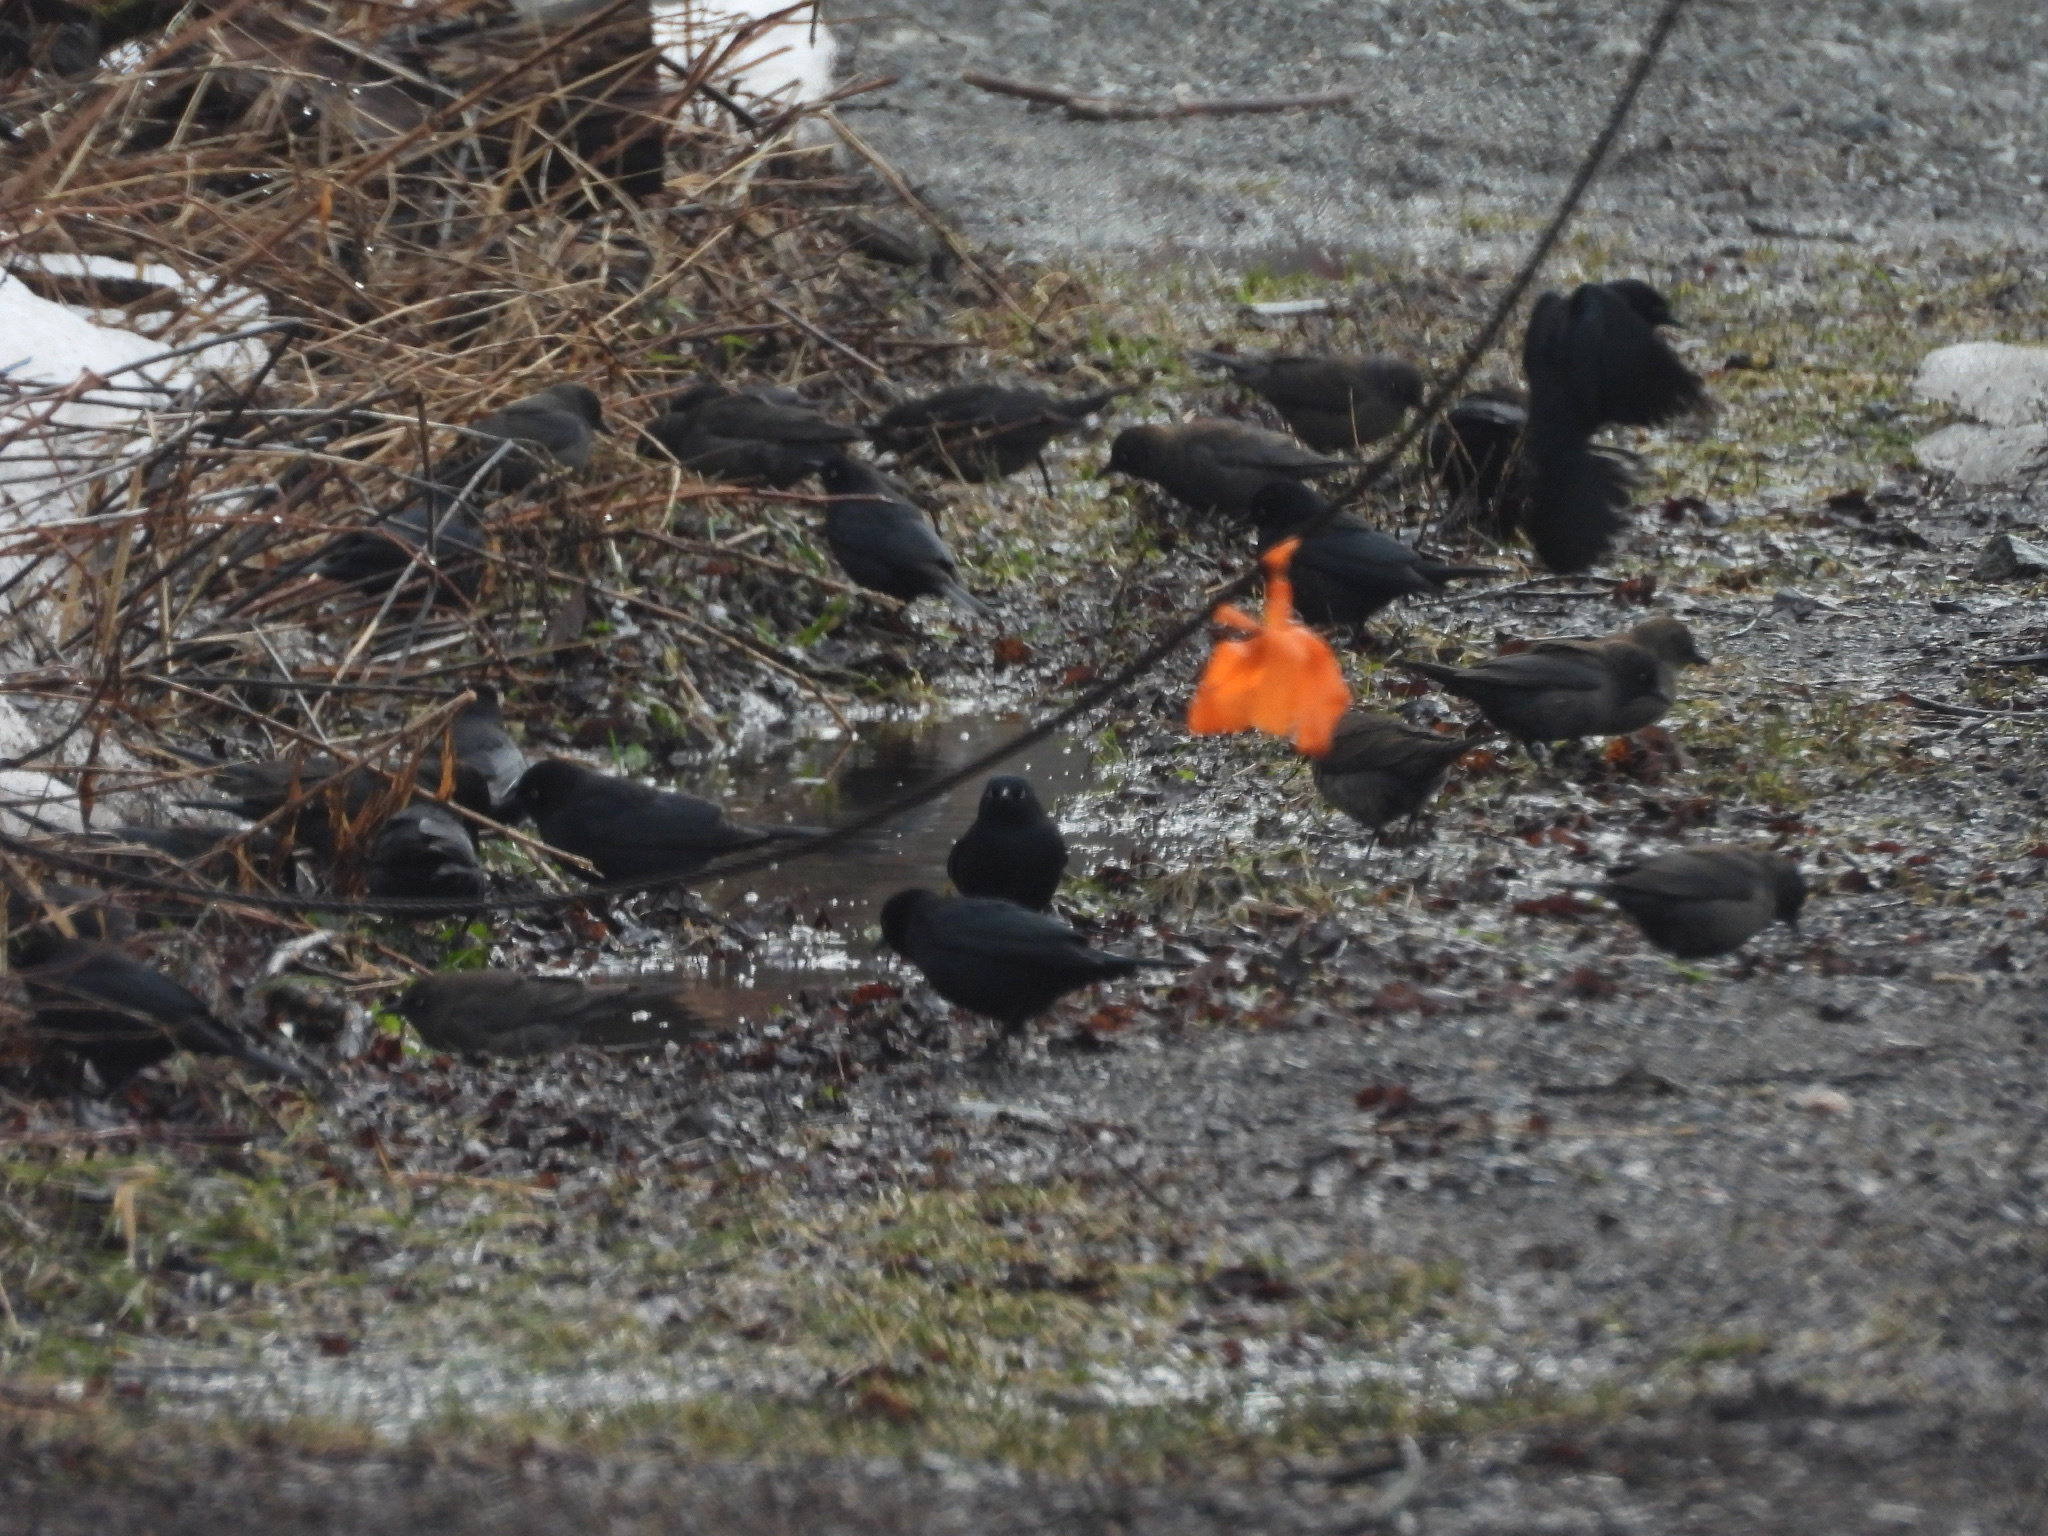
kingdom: Animalia
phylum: Chordata
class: Aves
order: Passeriformes
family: Icteridae
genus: Euphagus
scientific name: Euphagus carolinus
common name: Rusty blackbird
